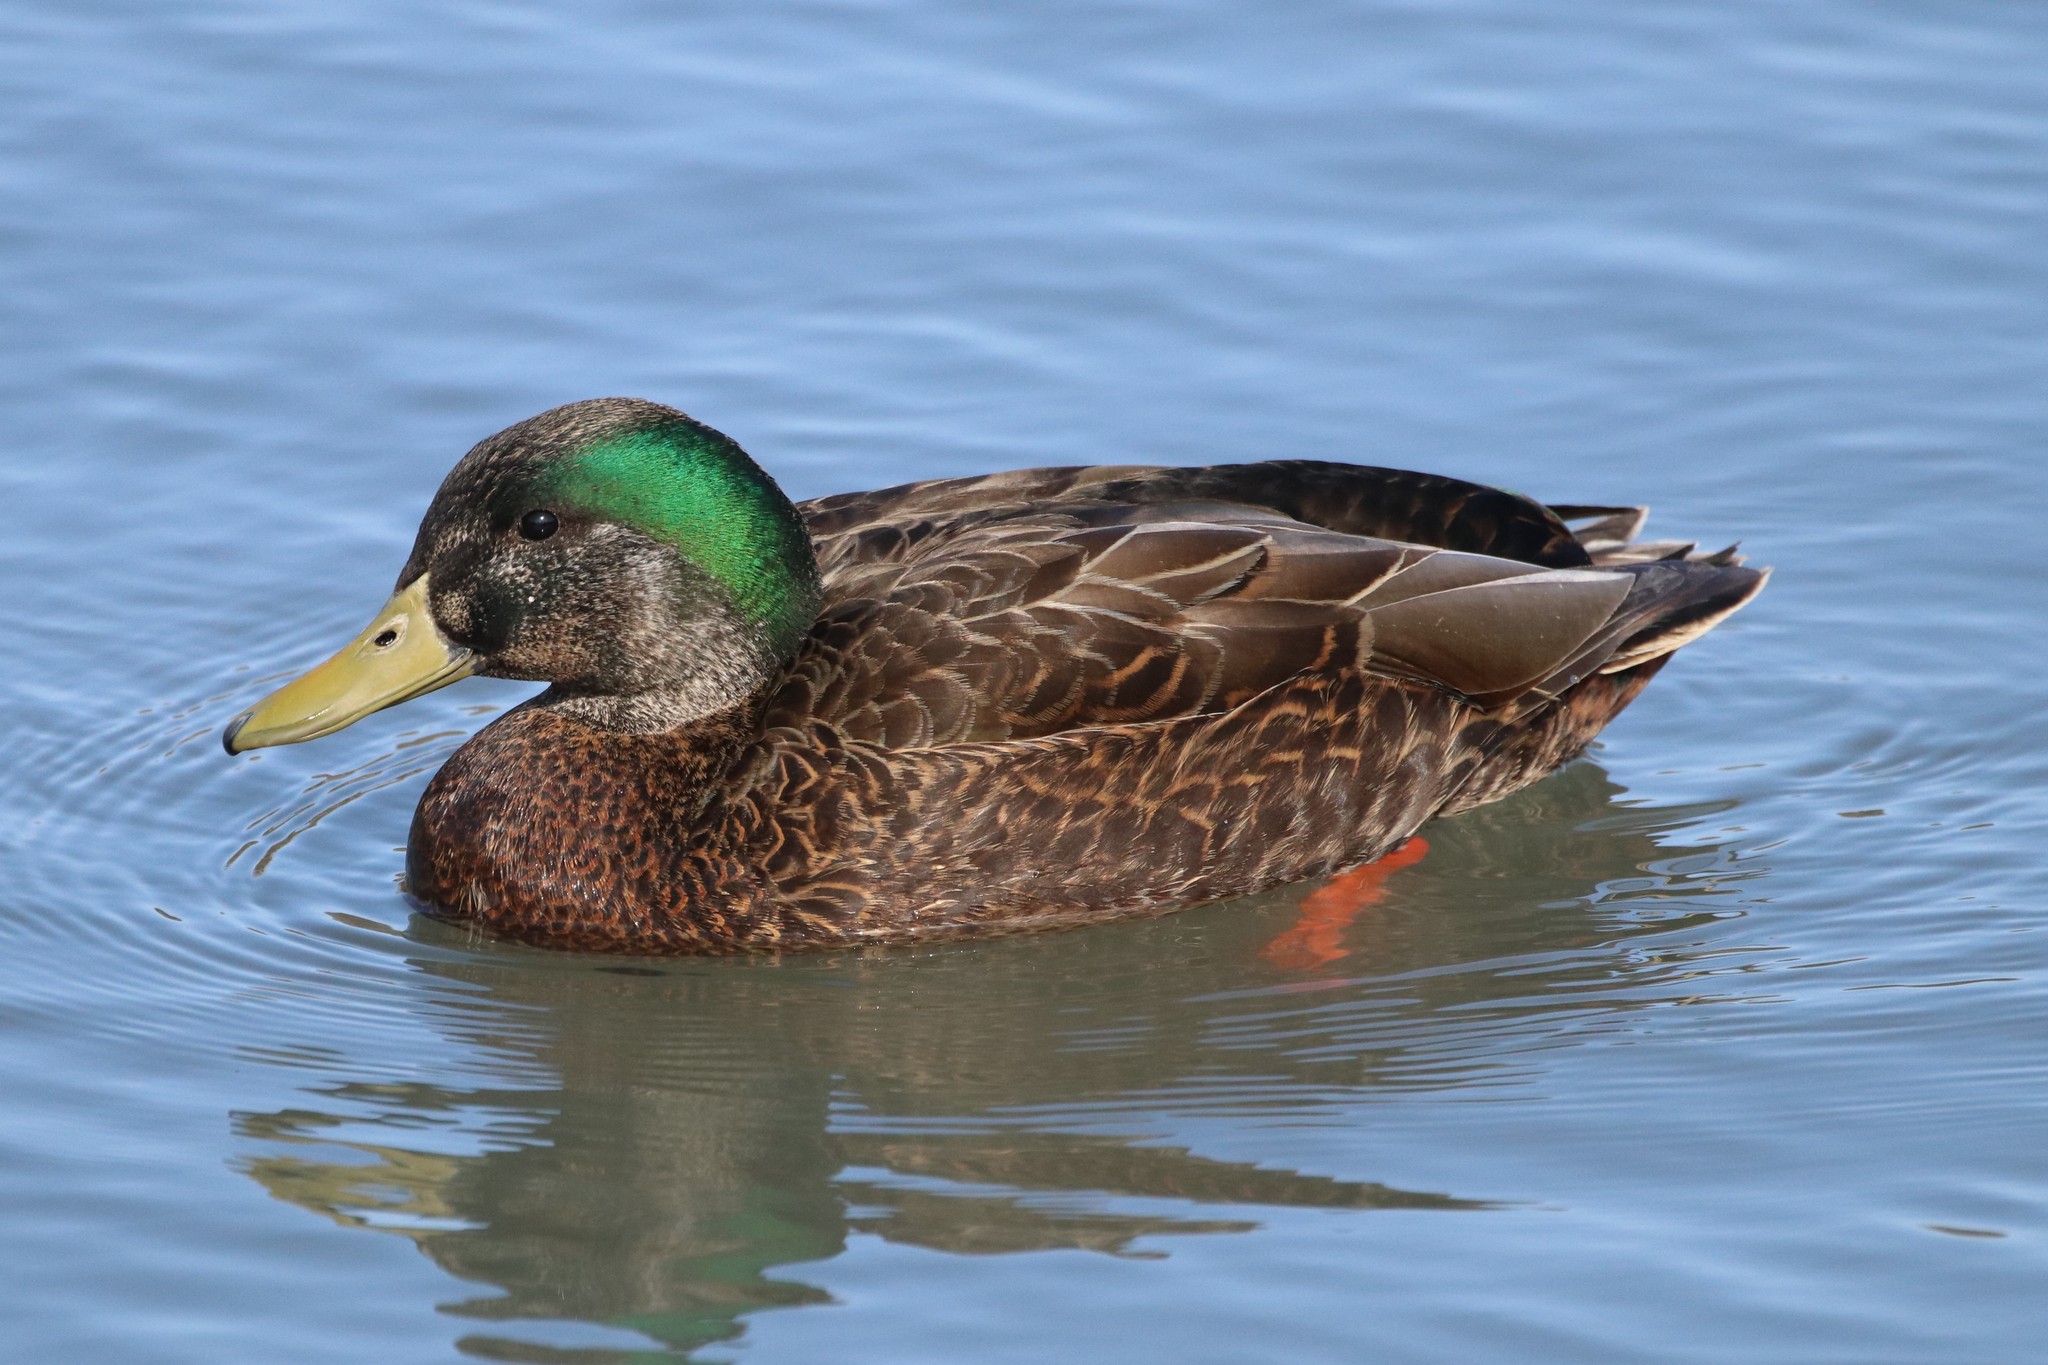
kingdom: Animalia
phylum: Chordata
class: Aves
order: Anseriformes
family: Anatidae
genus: Anas
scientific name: Anas
